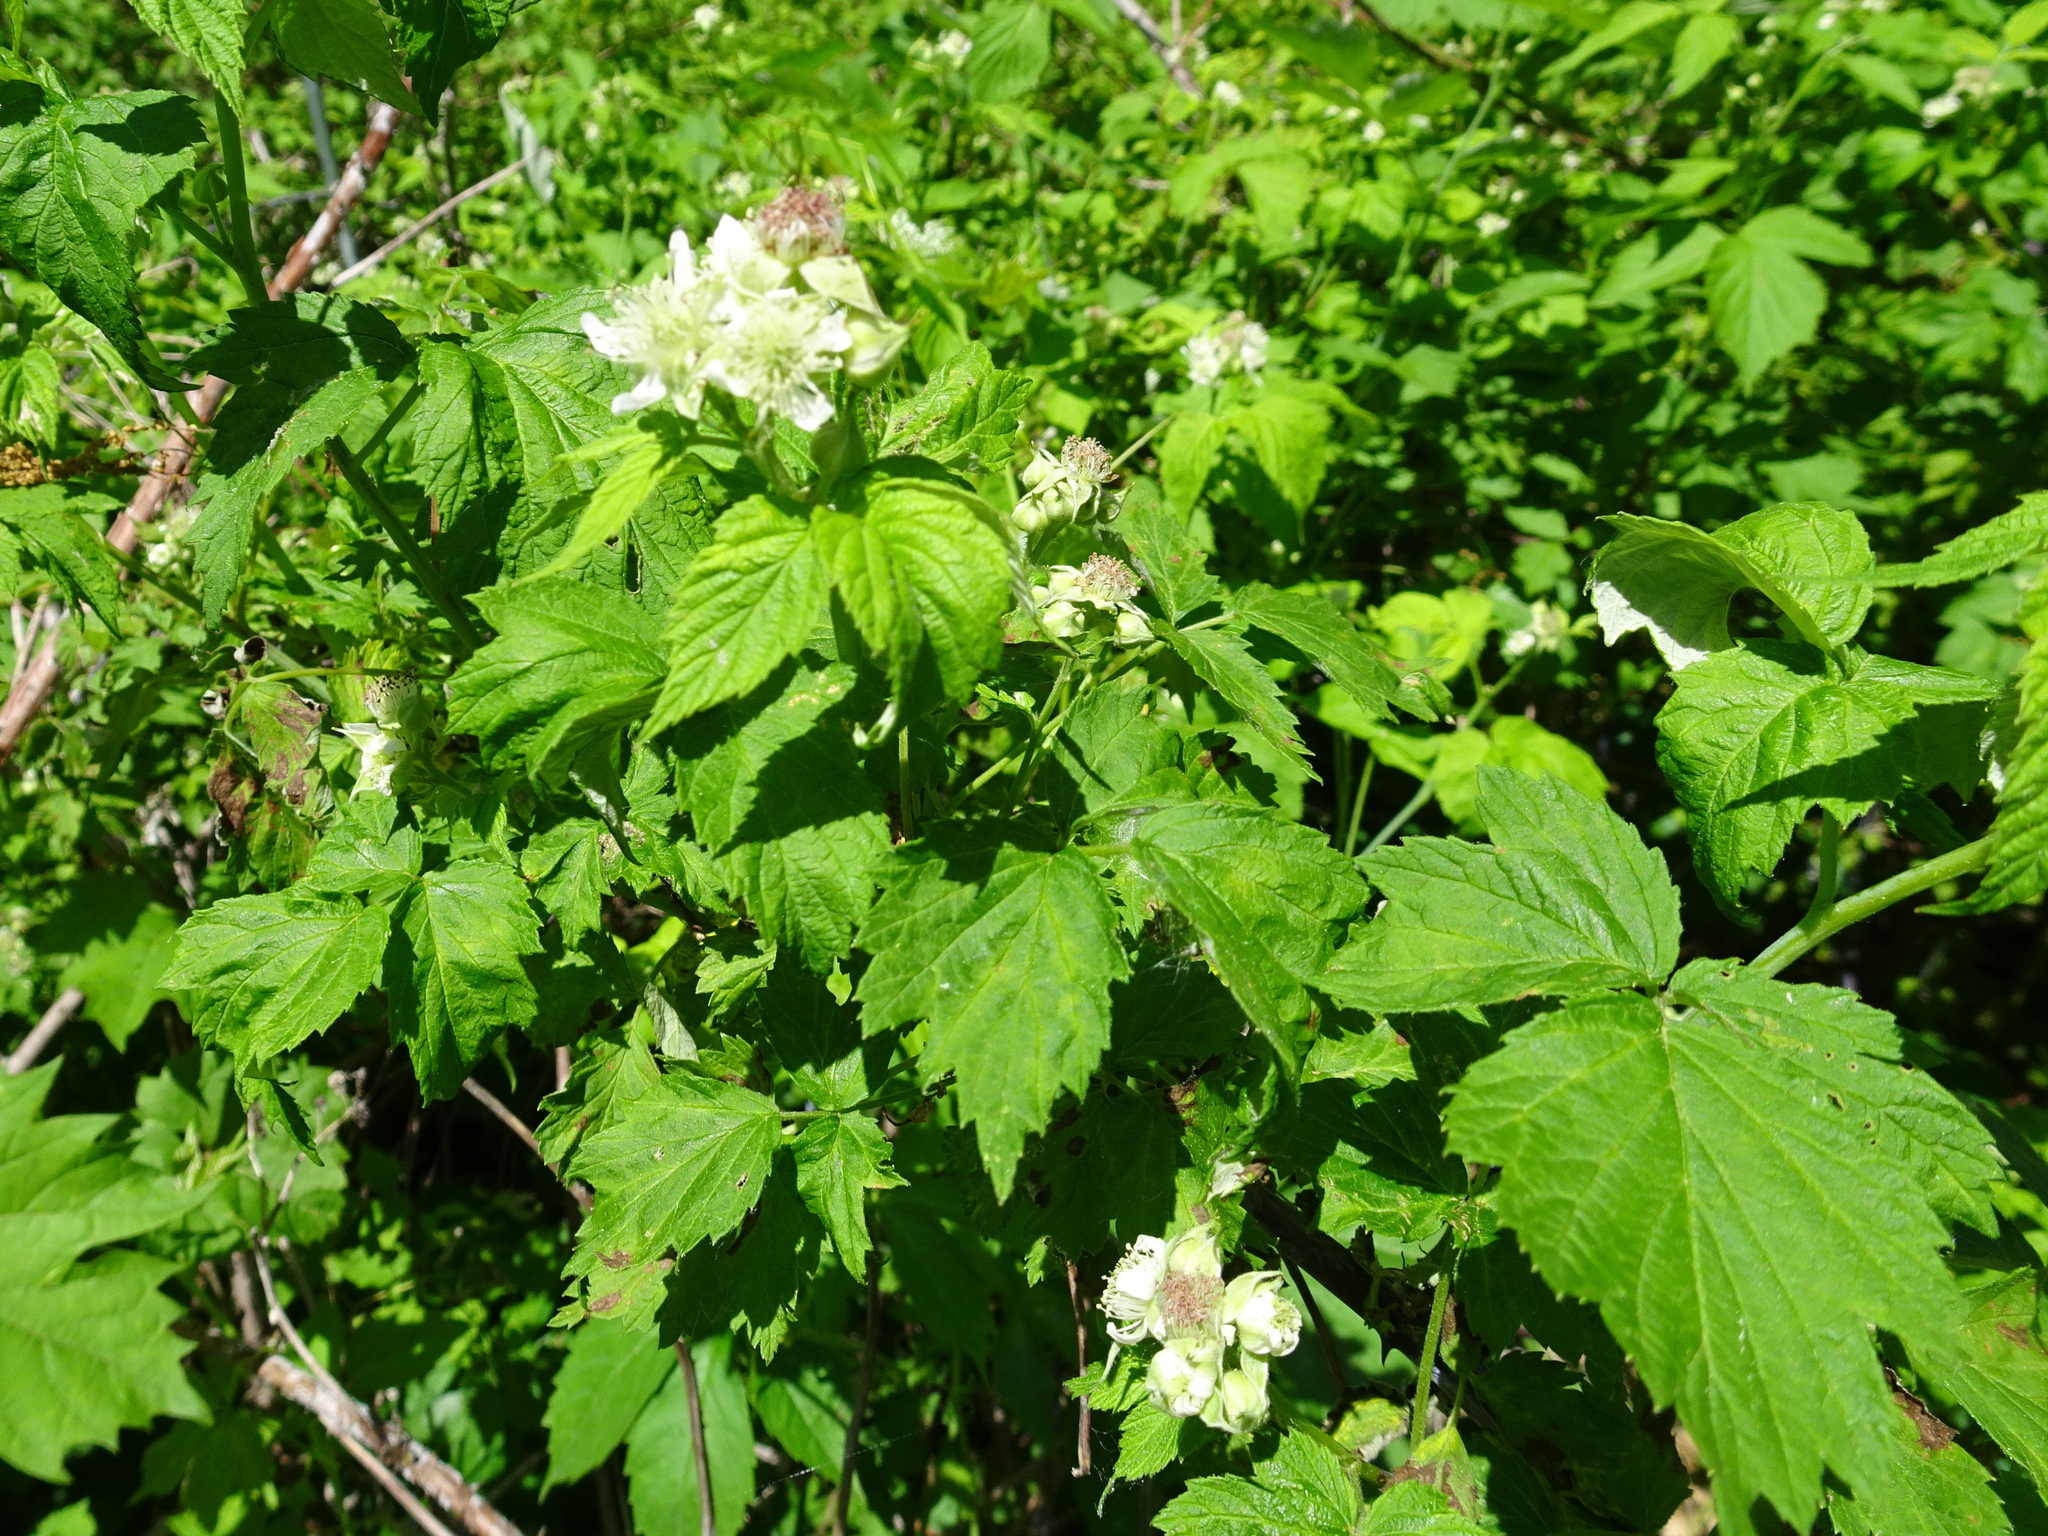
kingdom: Plantae
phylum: Tracheophyta
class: Magnoliopsida
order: Rosales
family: Rosaceae
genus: Rubus
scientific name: Rubus occidentalis
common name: Black raspberry
